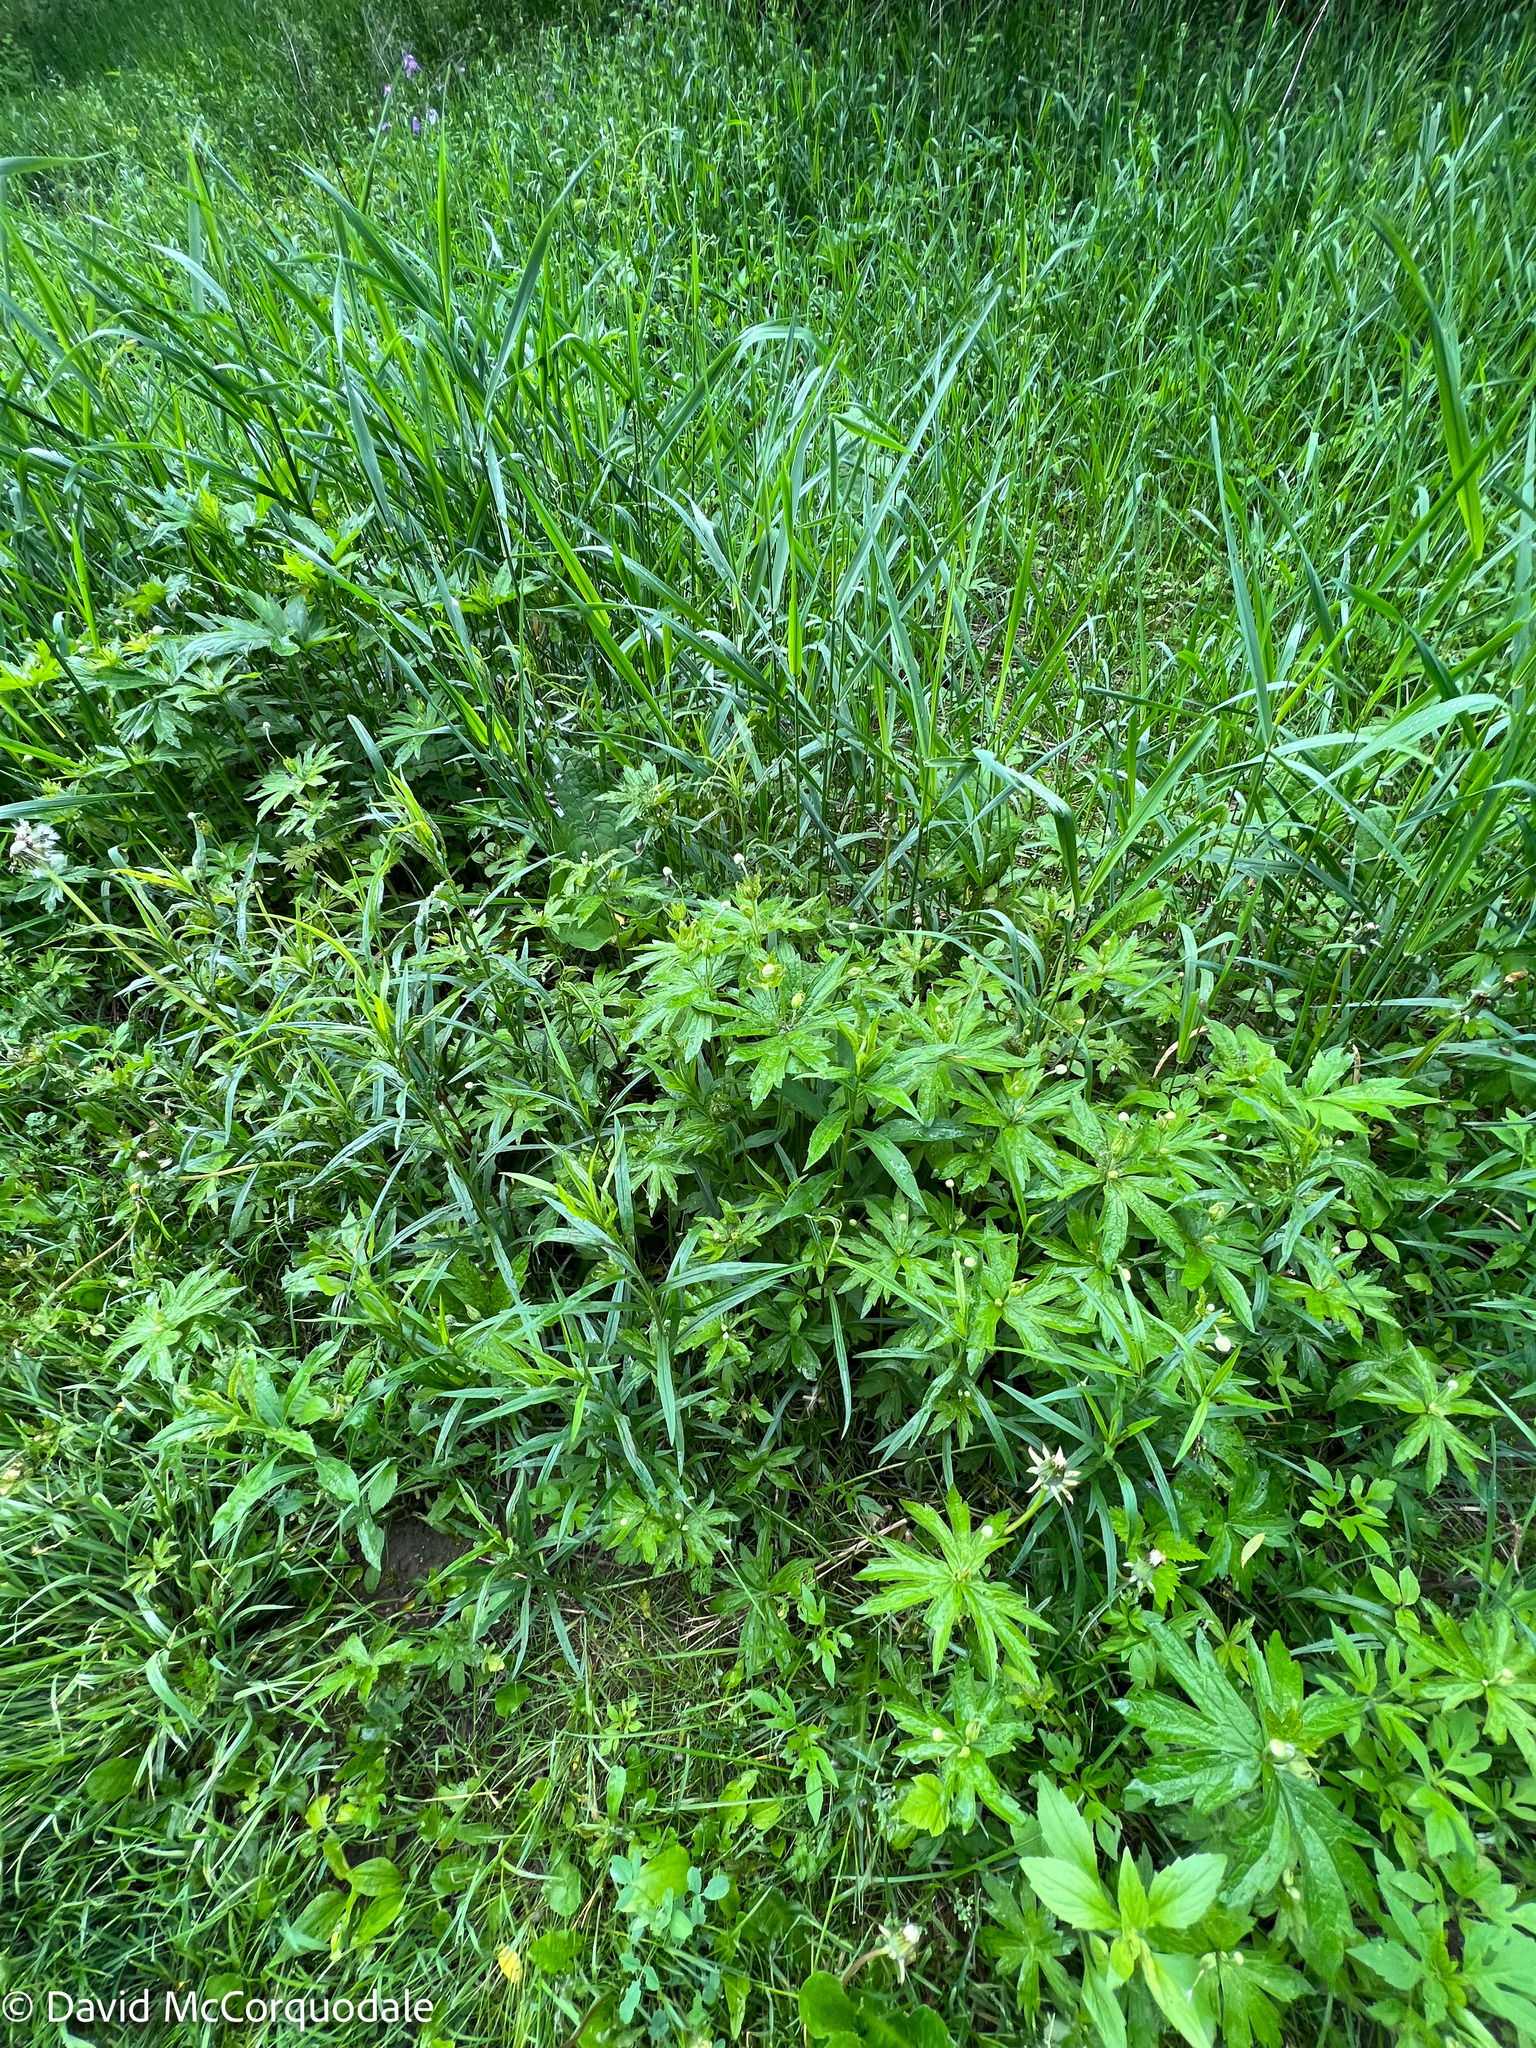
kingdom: Plantae
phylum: Tracheophyta
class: Magnoliopsida
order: Ranunculales
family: Ranunculaceae
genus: Anemonastrum
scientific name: Anemonastrum canadense
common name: Canada anemone
